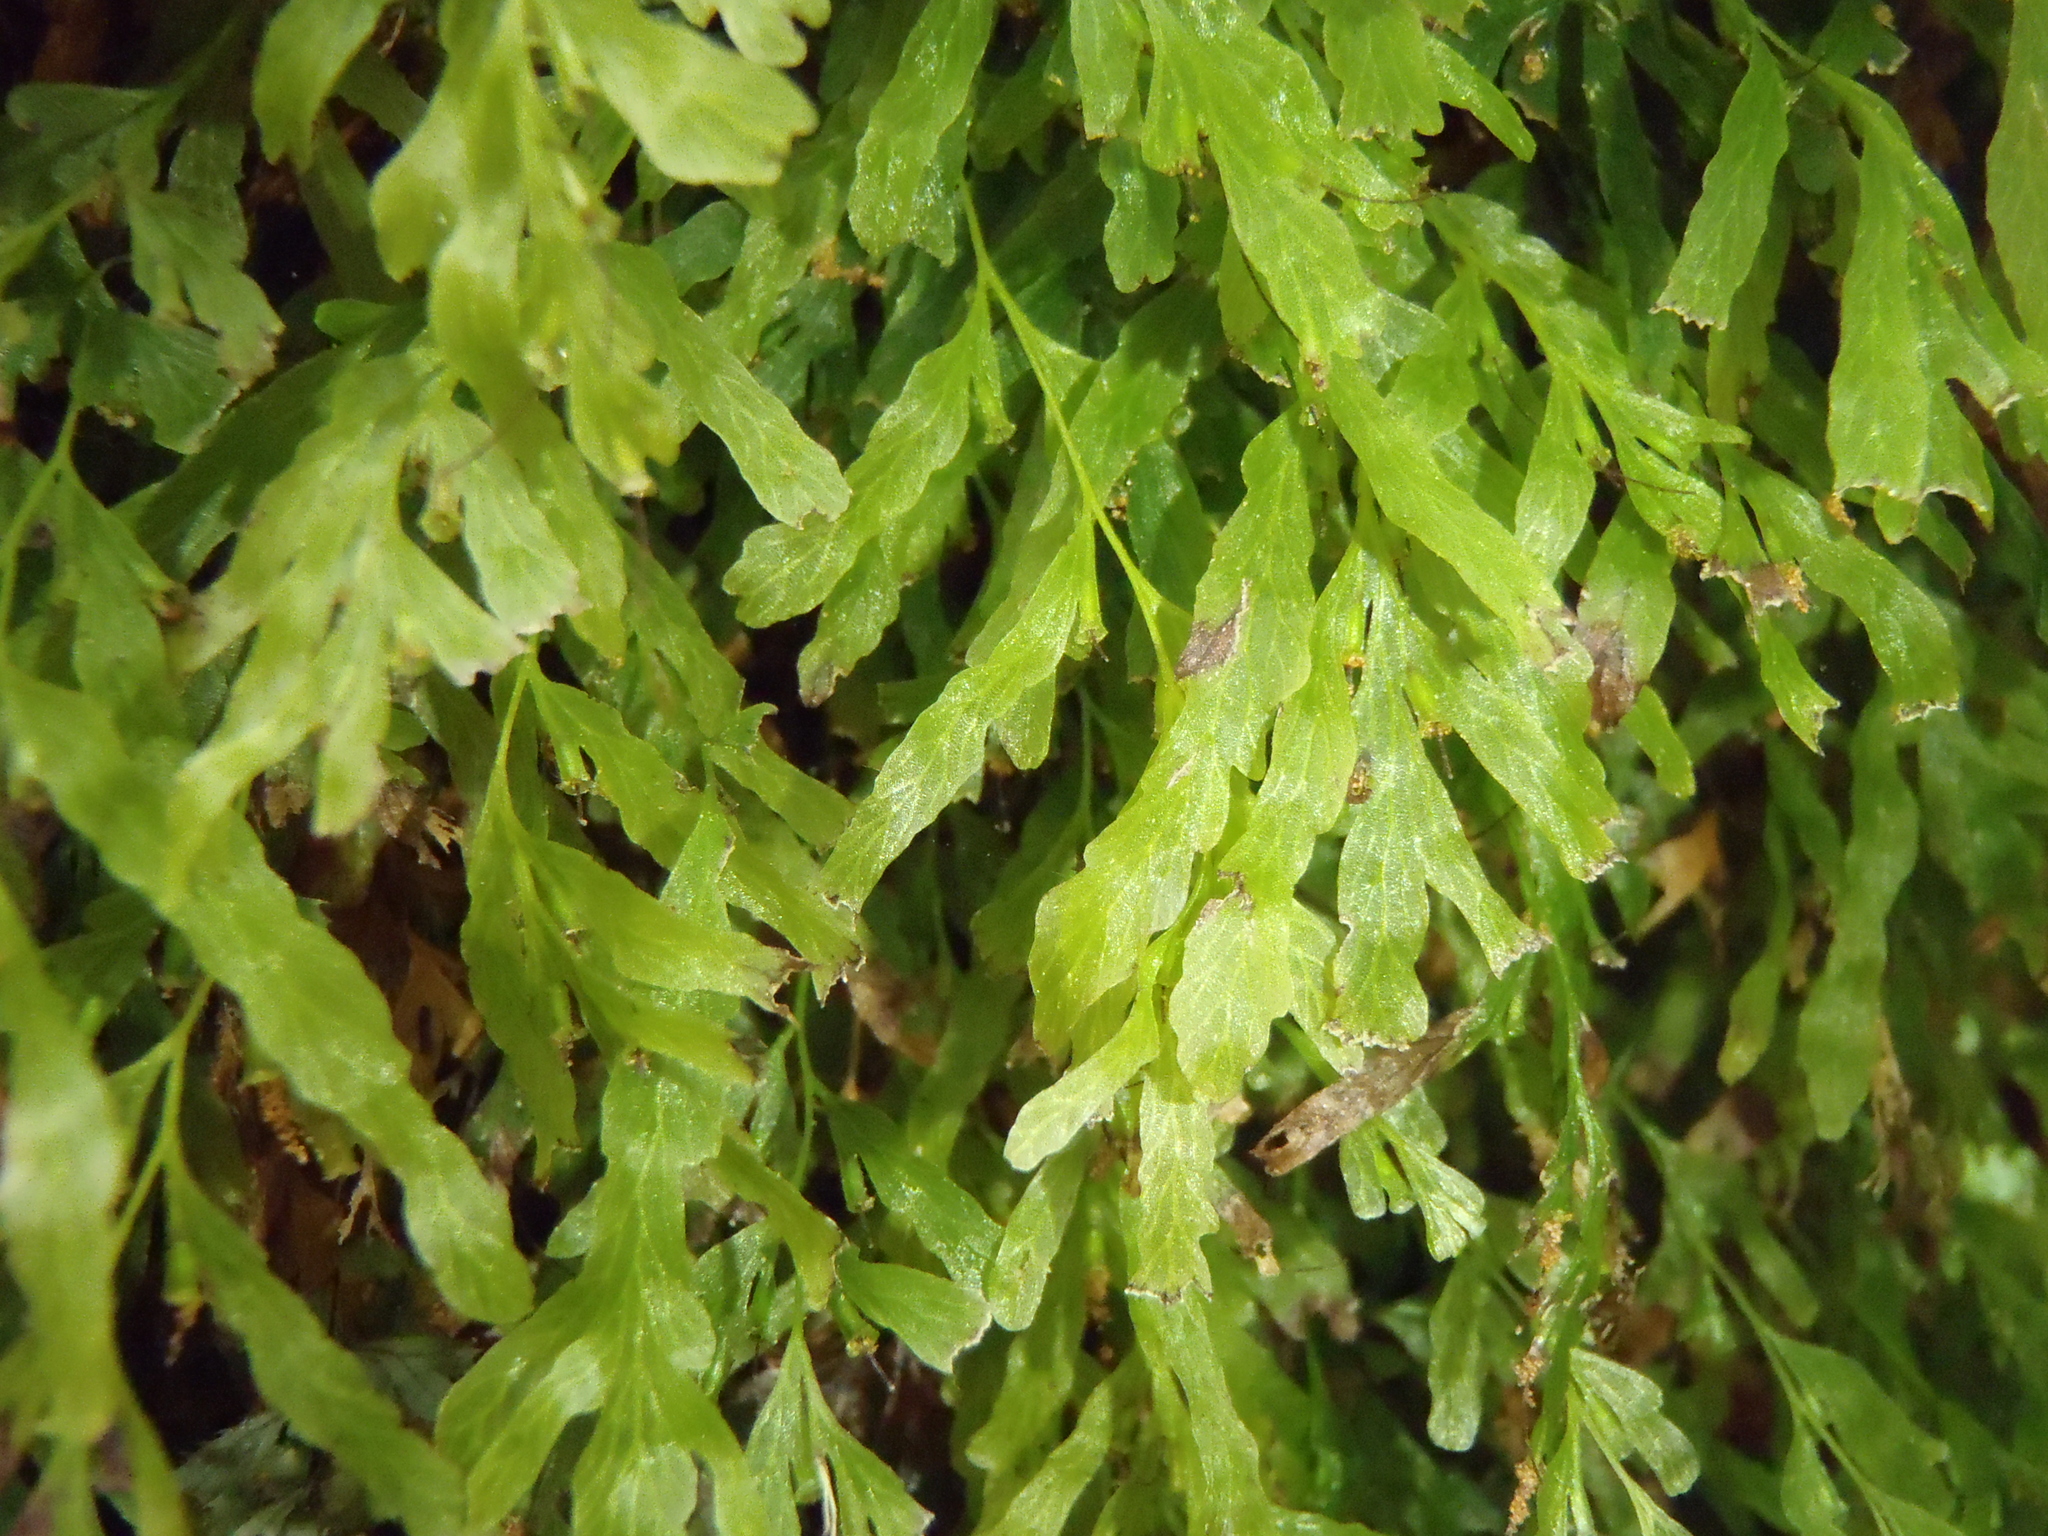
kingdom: Plantae
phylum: Tracheophyta
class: Polypodiopsida
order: Hymenophyllales
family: Hymenophyllaceae
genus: Polyphlebium
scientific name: Polyphlebium venosum
